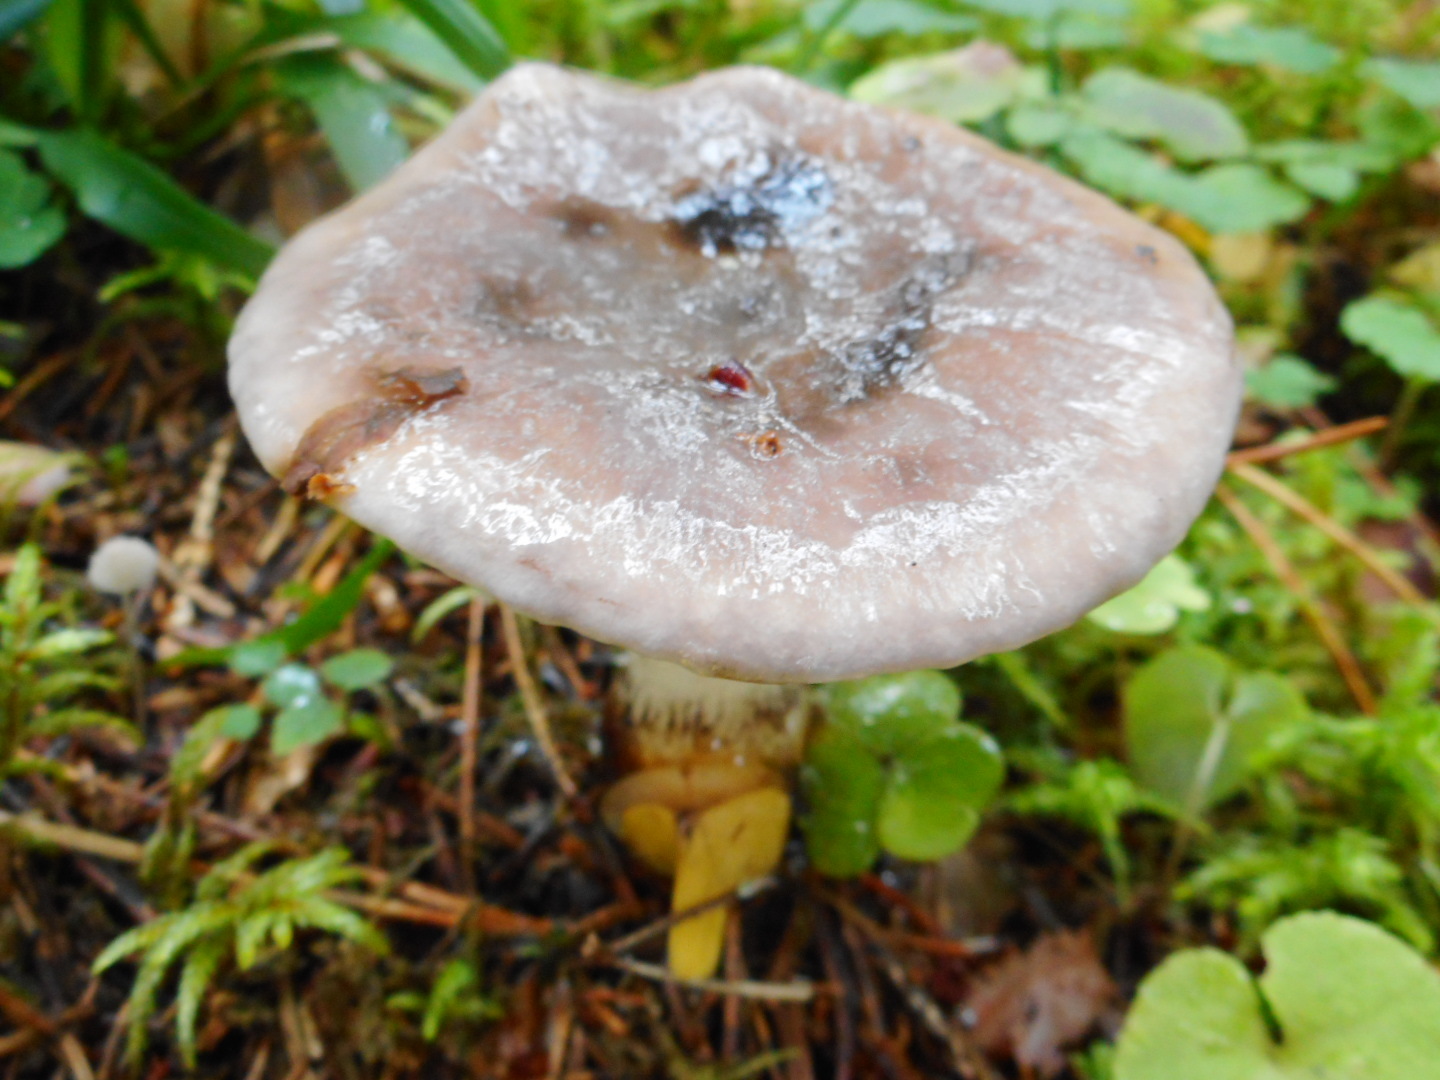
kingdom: Fungi
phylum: Basidiomycota
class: Agaricomycetes
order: Boletales
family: Gomphidiaceae
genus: Gomphidius
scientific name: Gomphidius glutinosus
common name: Slimy spike
